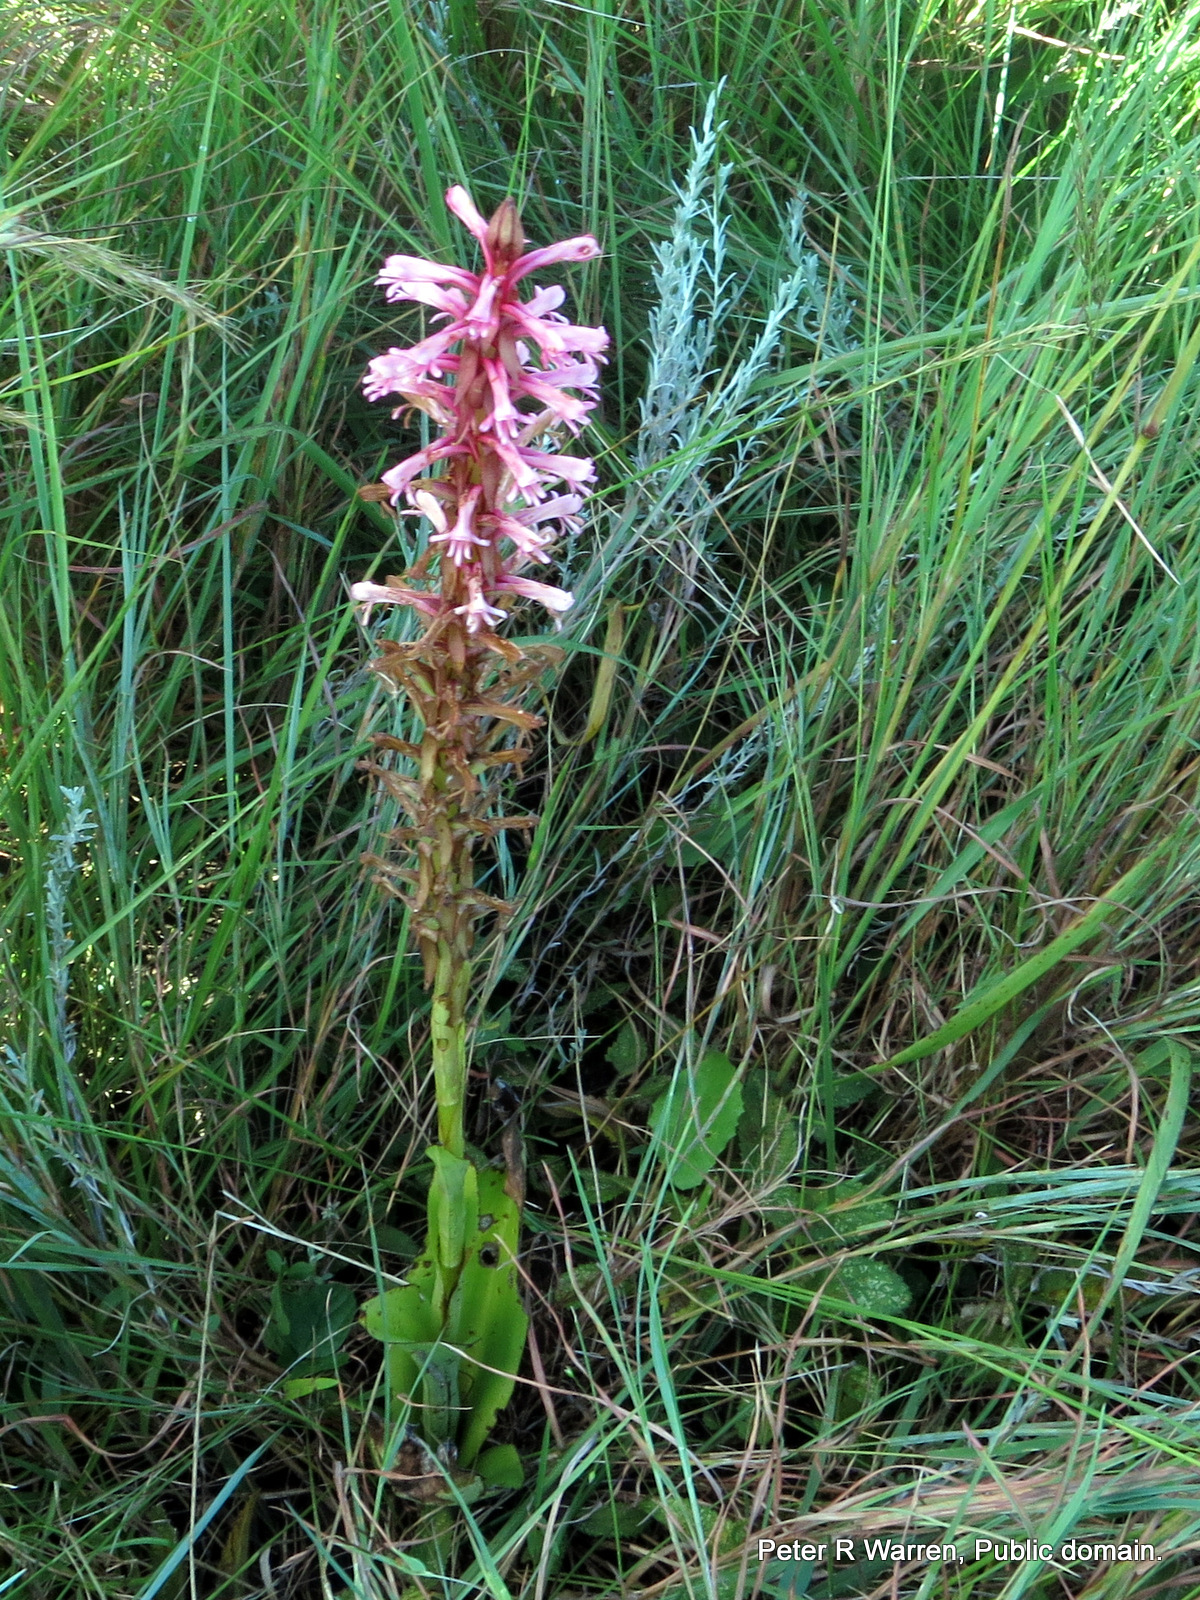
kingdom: Plantae
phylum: Tracheophyta
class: Liliopsida
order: Asparagales
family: Orchidaceae
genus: Satyrium
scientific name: Satyrium macrophyllum
